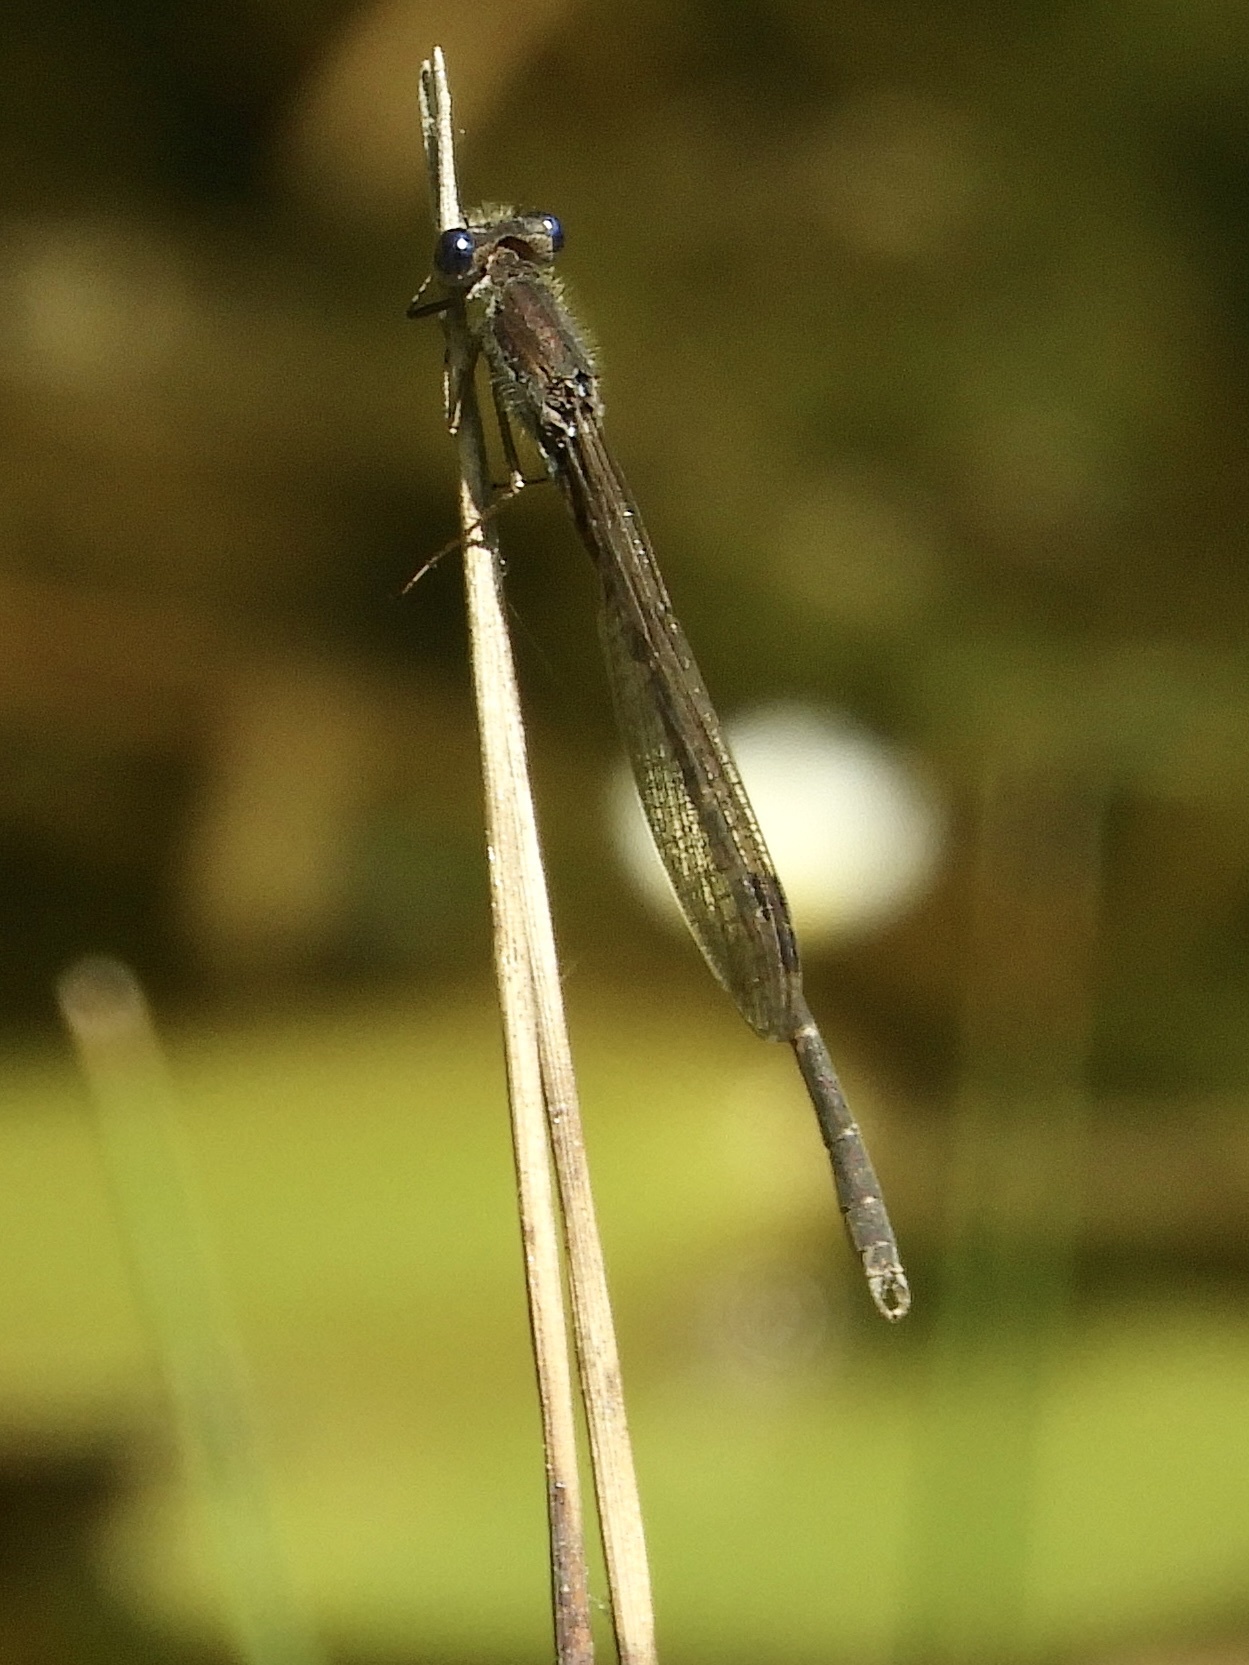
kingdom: Animalia
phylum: Arthropoda
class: Insecta
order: Odonata
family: Lestidae
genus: Sympecma
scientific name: Sympecma fusca
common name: Common winter damsel
